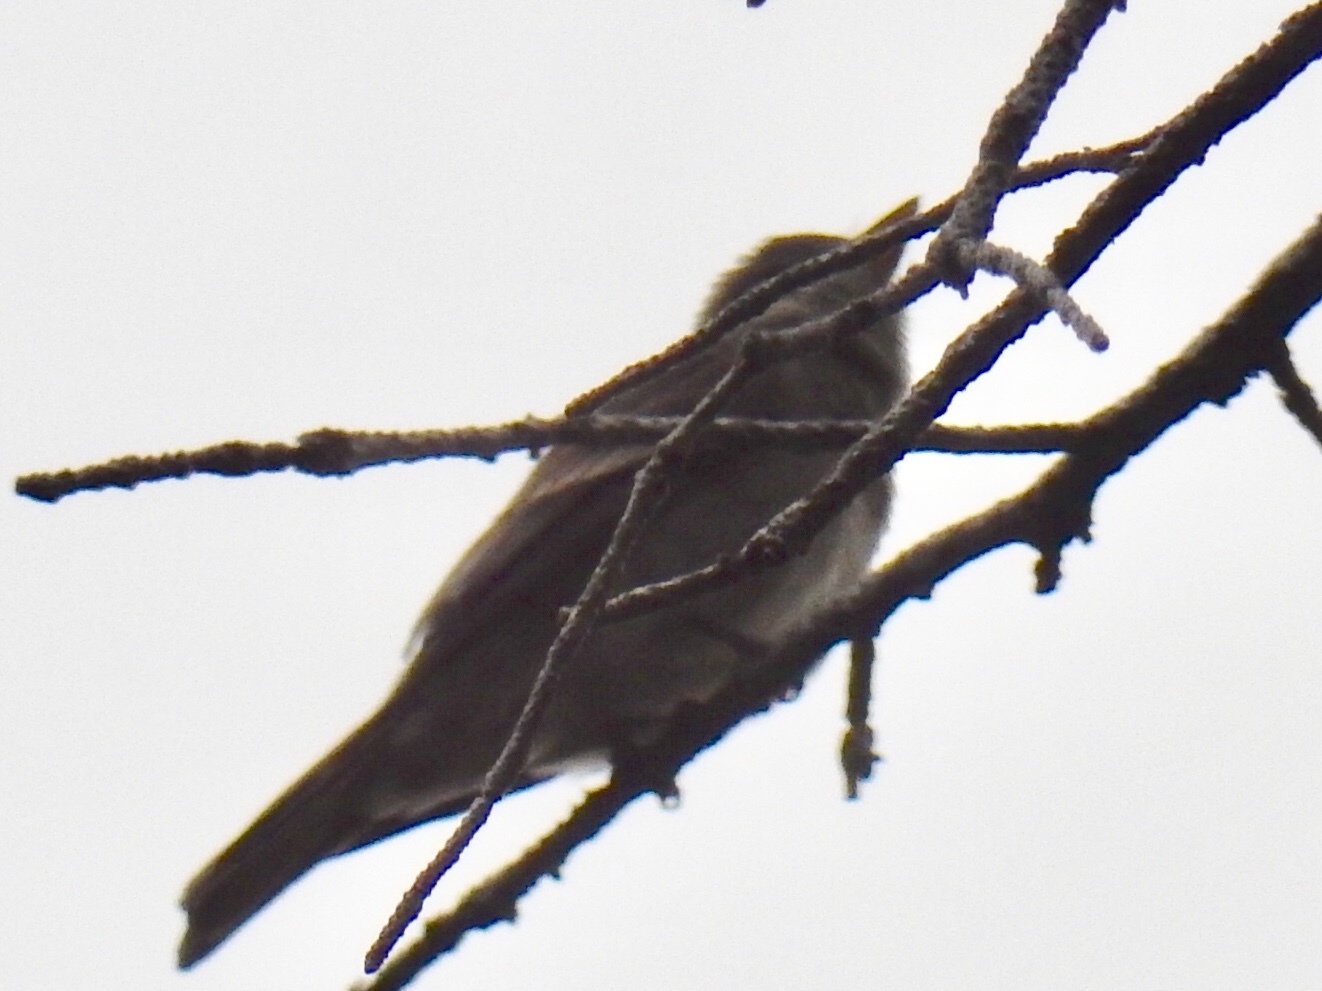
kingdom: Animalia
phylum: Chordata
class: Aves
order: Passeriformes
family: Tyrannidae
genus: Contopus
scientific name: Contopus sordidulus
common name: Western wood-pewee
